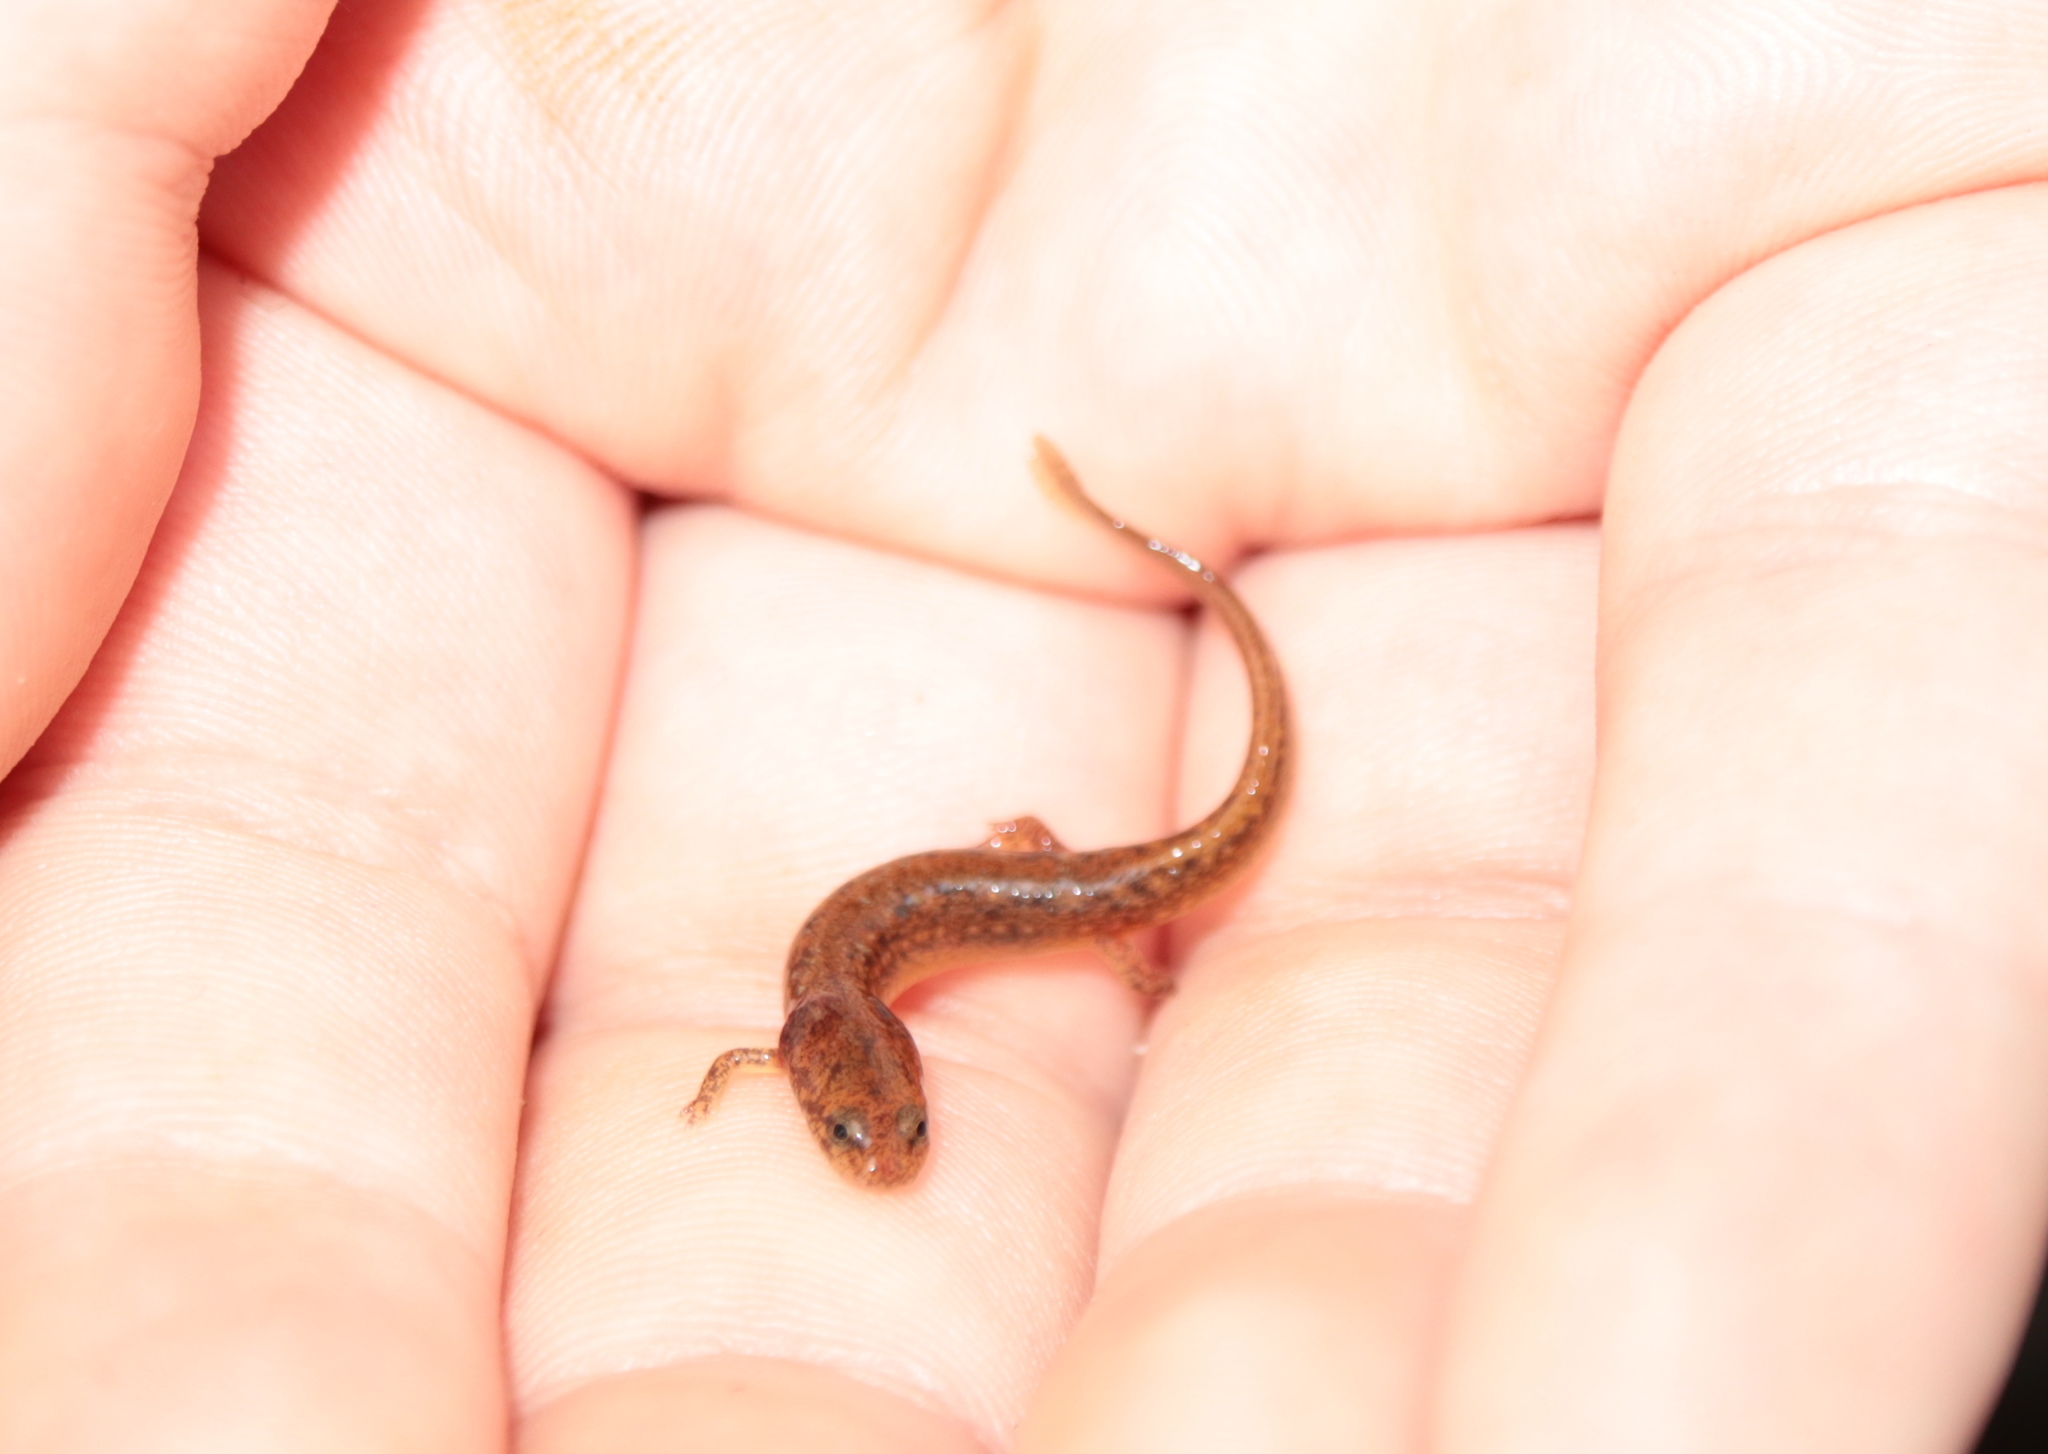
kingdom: Animalia
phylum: Chordata
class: Amphibia
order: Caudata
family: Plethodontidae
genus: Eurycea
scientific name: Eurycea bislineata
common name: Northern two-lined salamander
